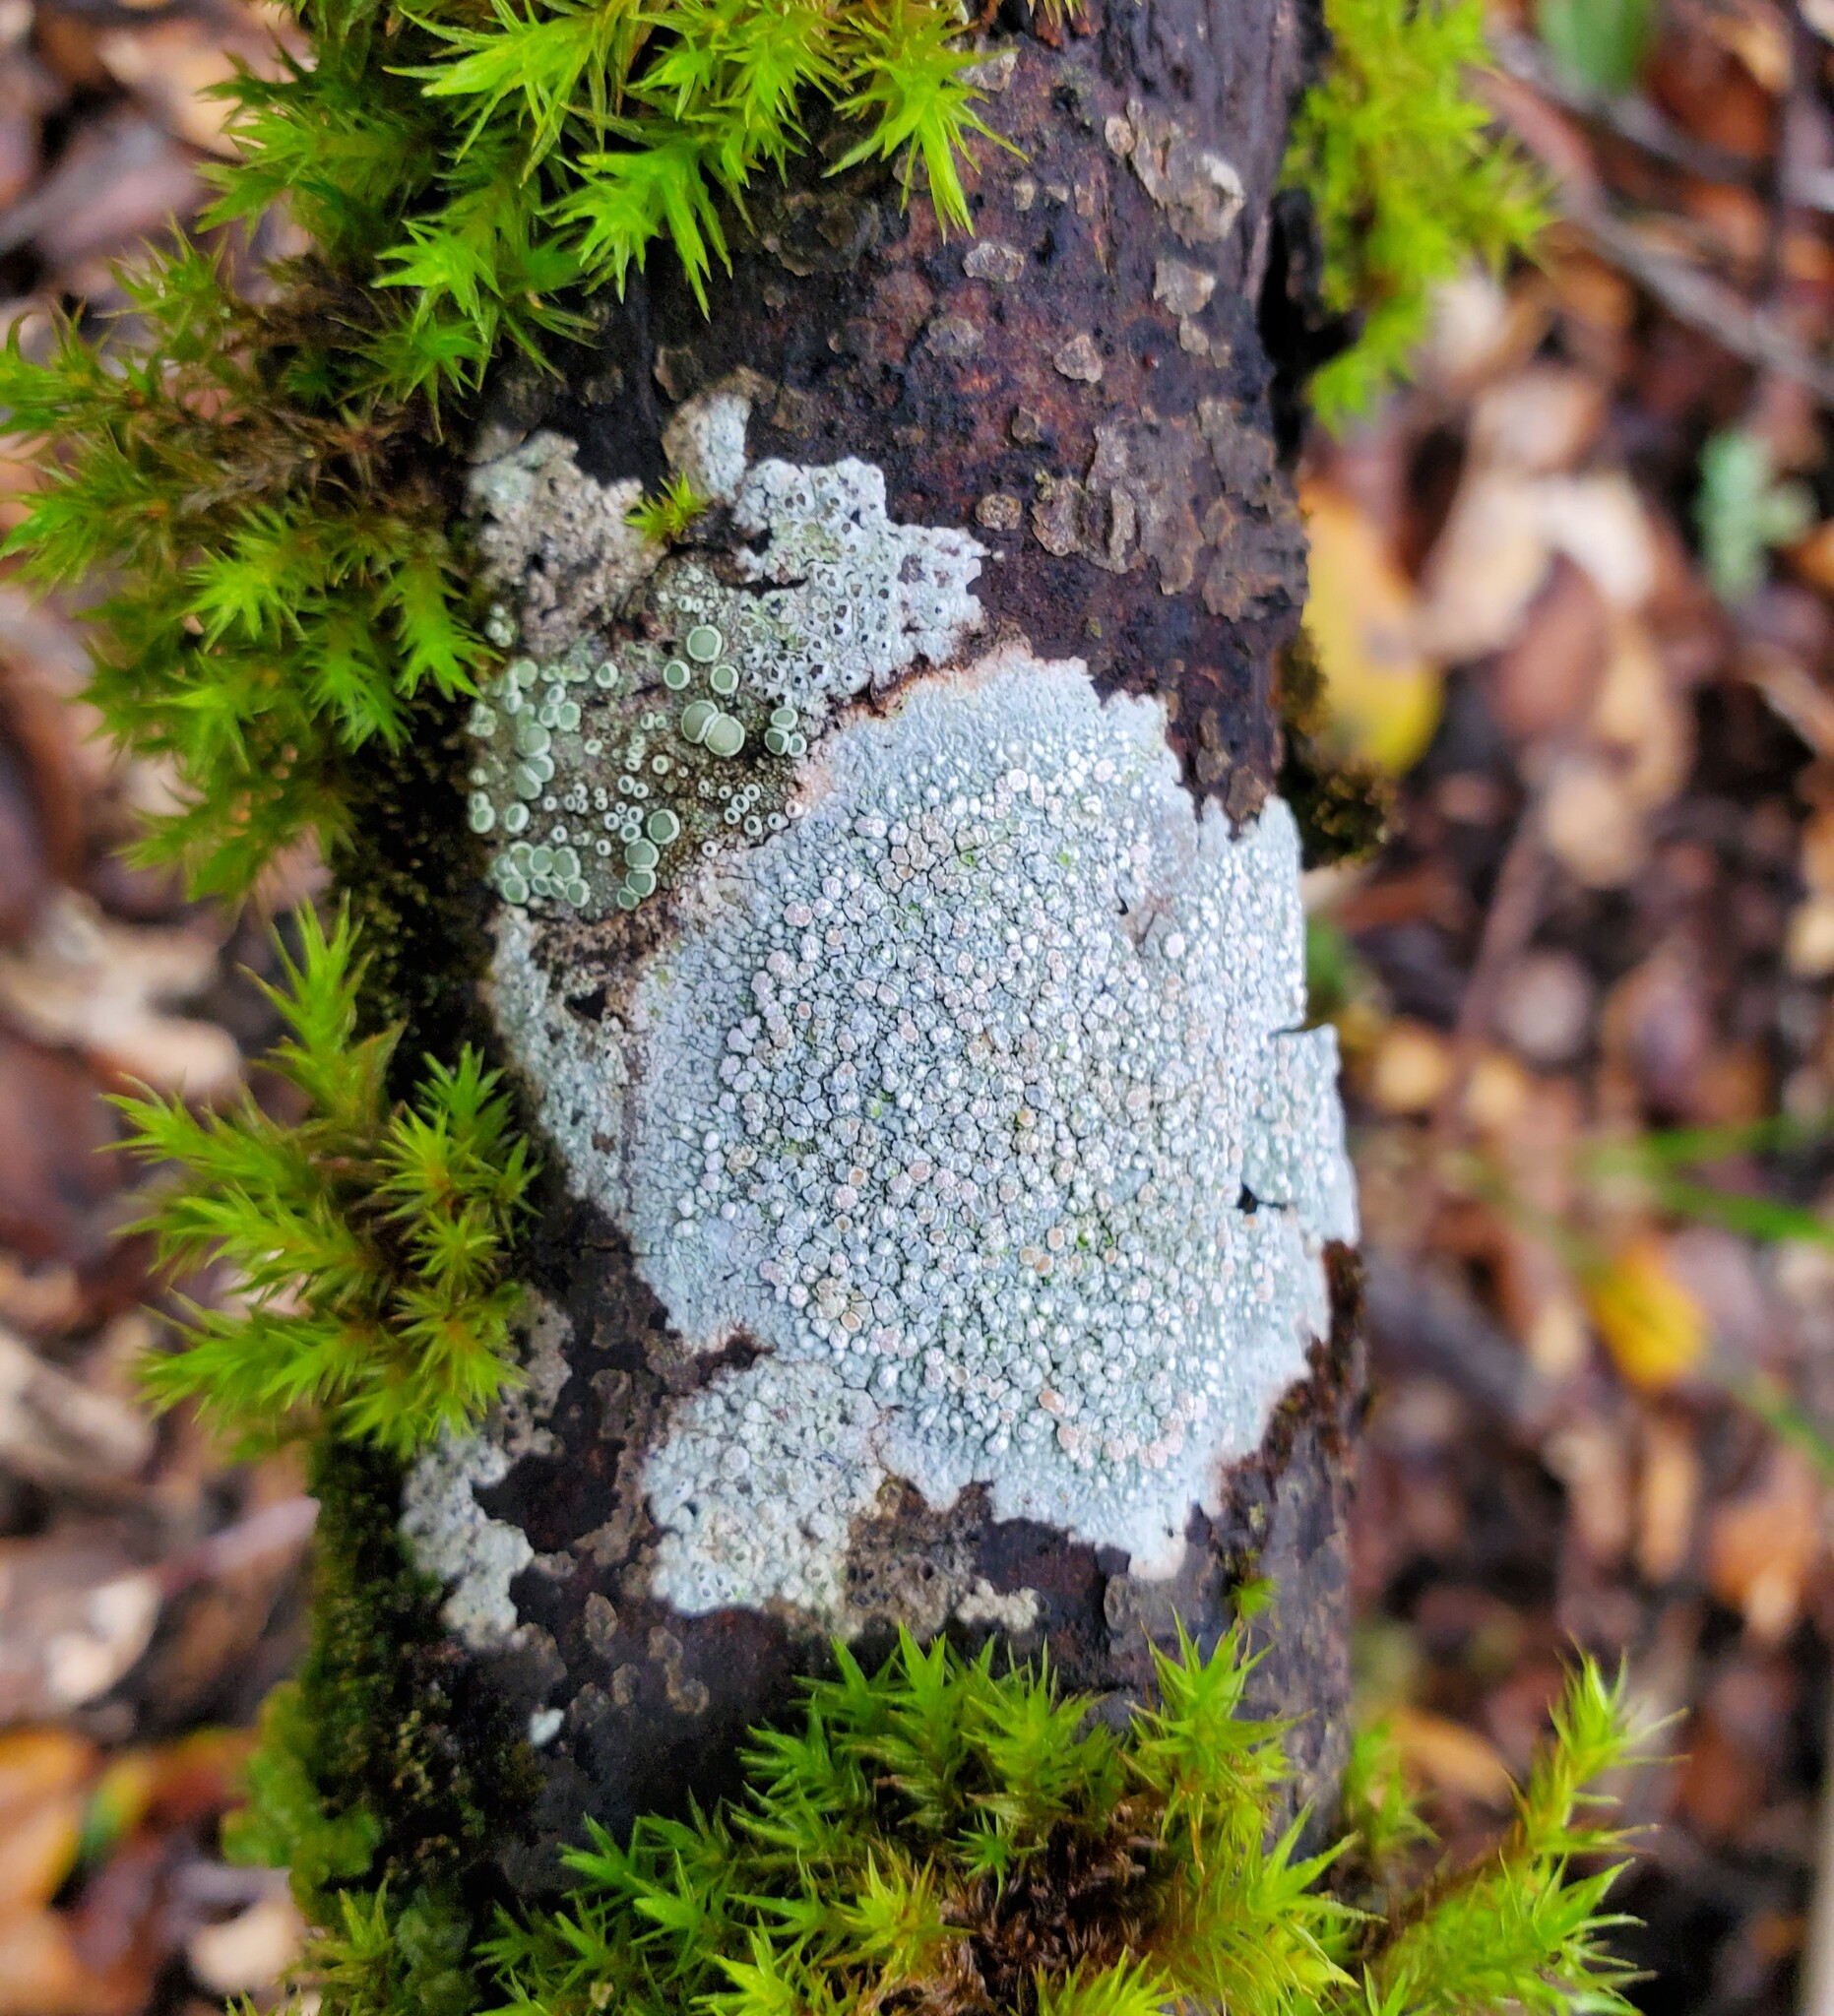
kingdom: Fungi
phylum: Ascomycota
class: Lecanoromycetes
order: Lecanorales
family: Lecanoraceae
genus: Glaucomaria
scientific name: Glaucomaria carpinea
